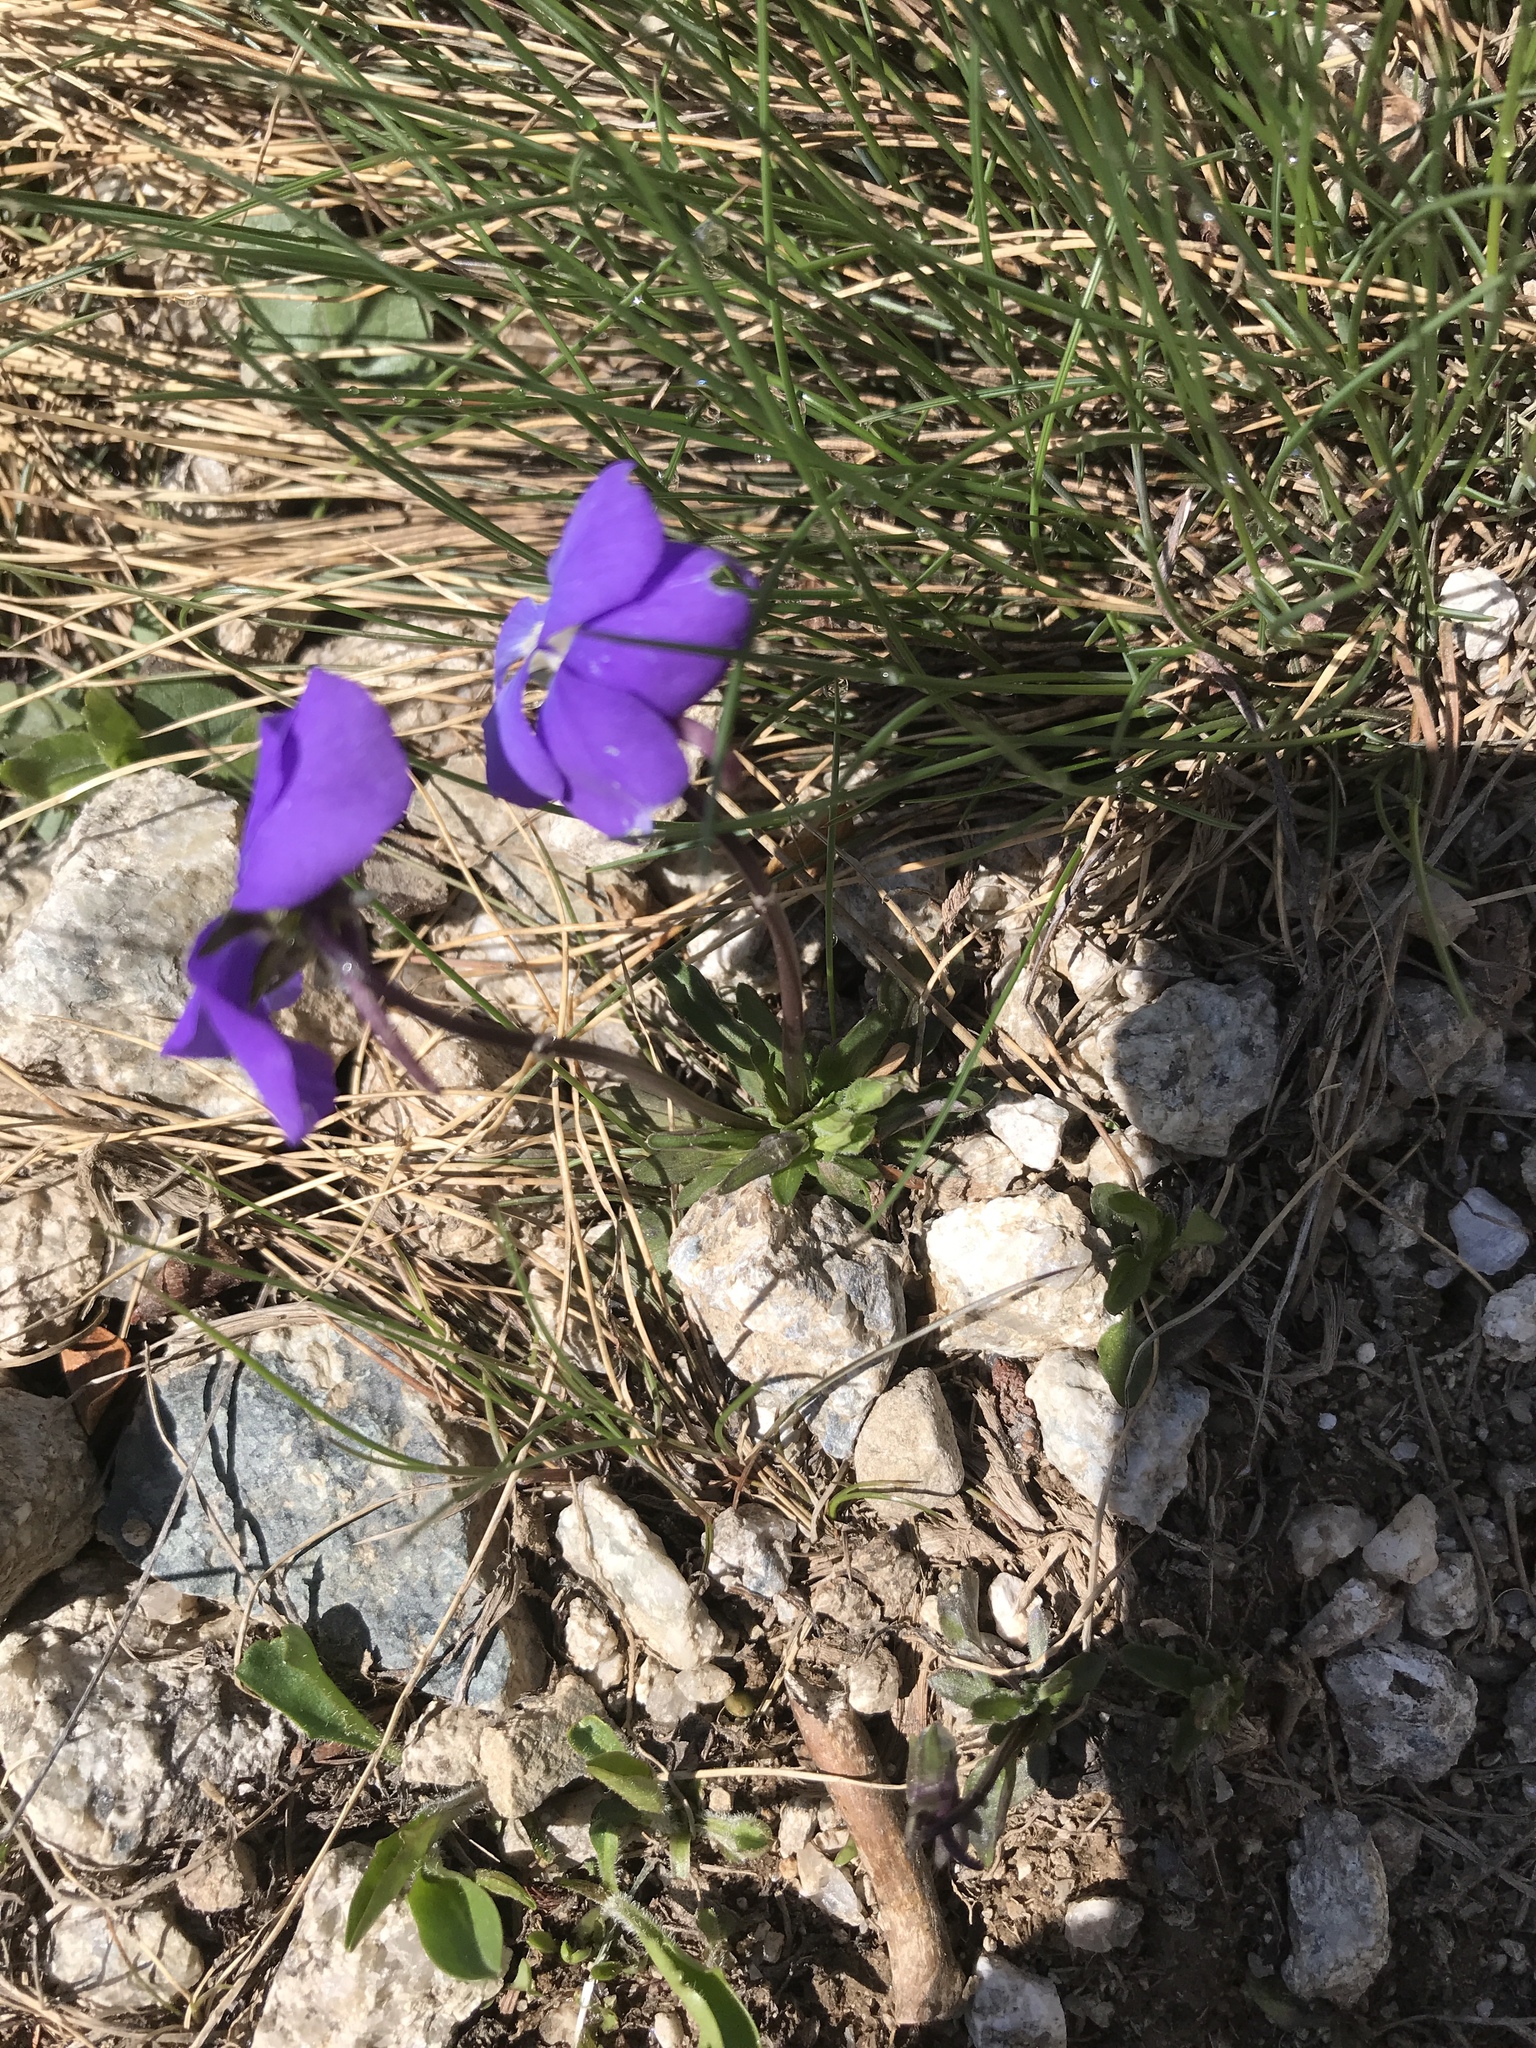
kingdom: Plantae
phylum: Tracheophyta
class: Magnoliopsida
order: Malpighiales
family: Violaceae
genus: Viola
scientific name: Viola calcarata
